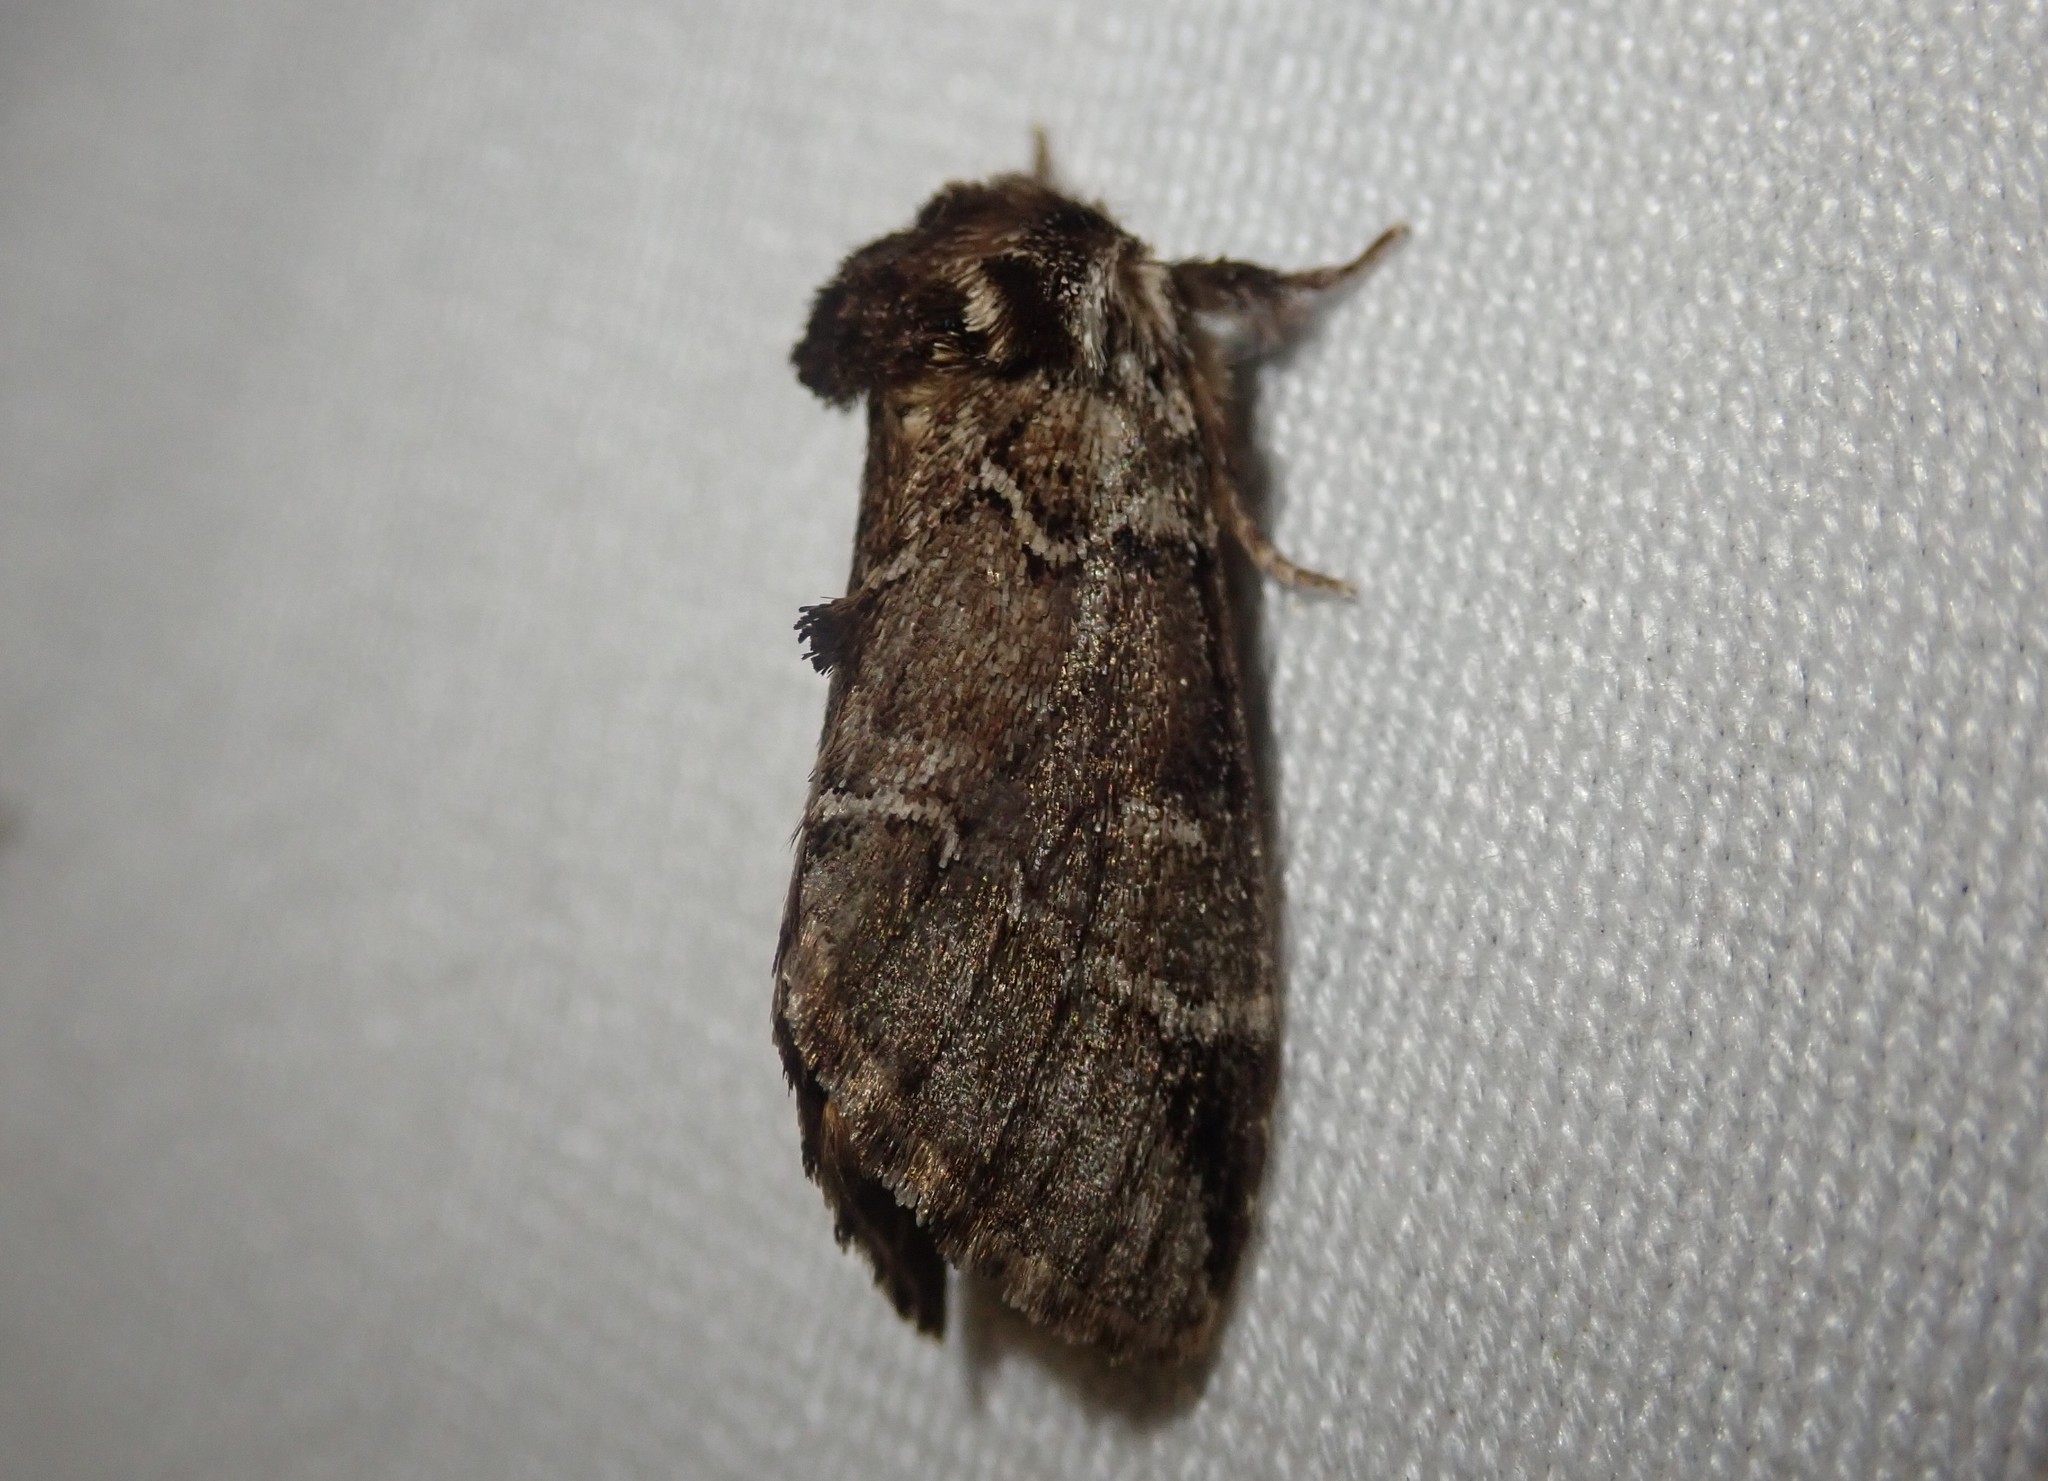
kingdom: Animalia
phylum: Arthropoda
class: Insecta
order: Lepidoptera
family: Notodontidae
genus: Drymonia
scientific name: Drymonia obliterata
